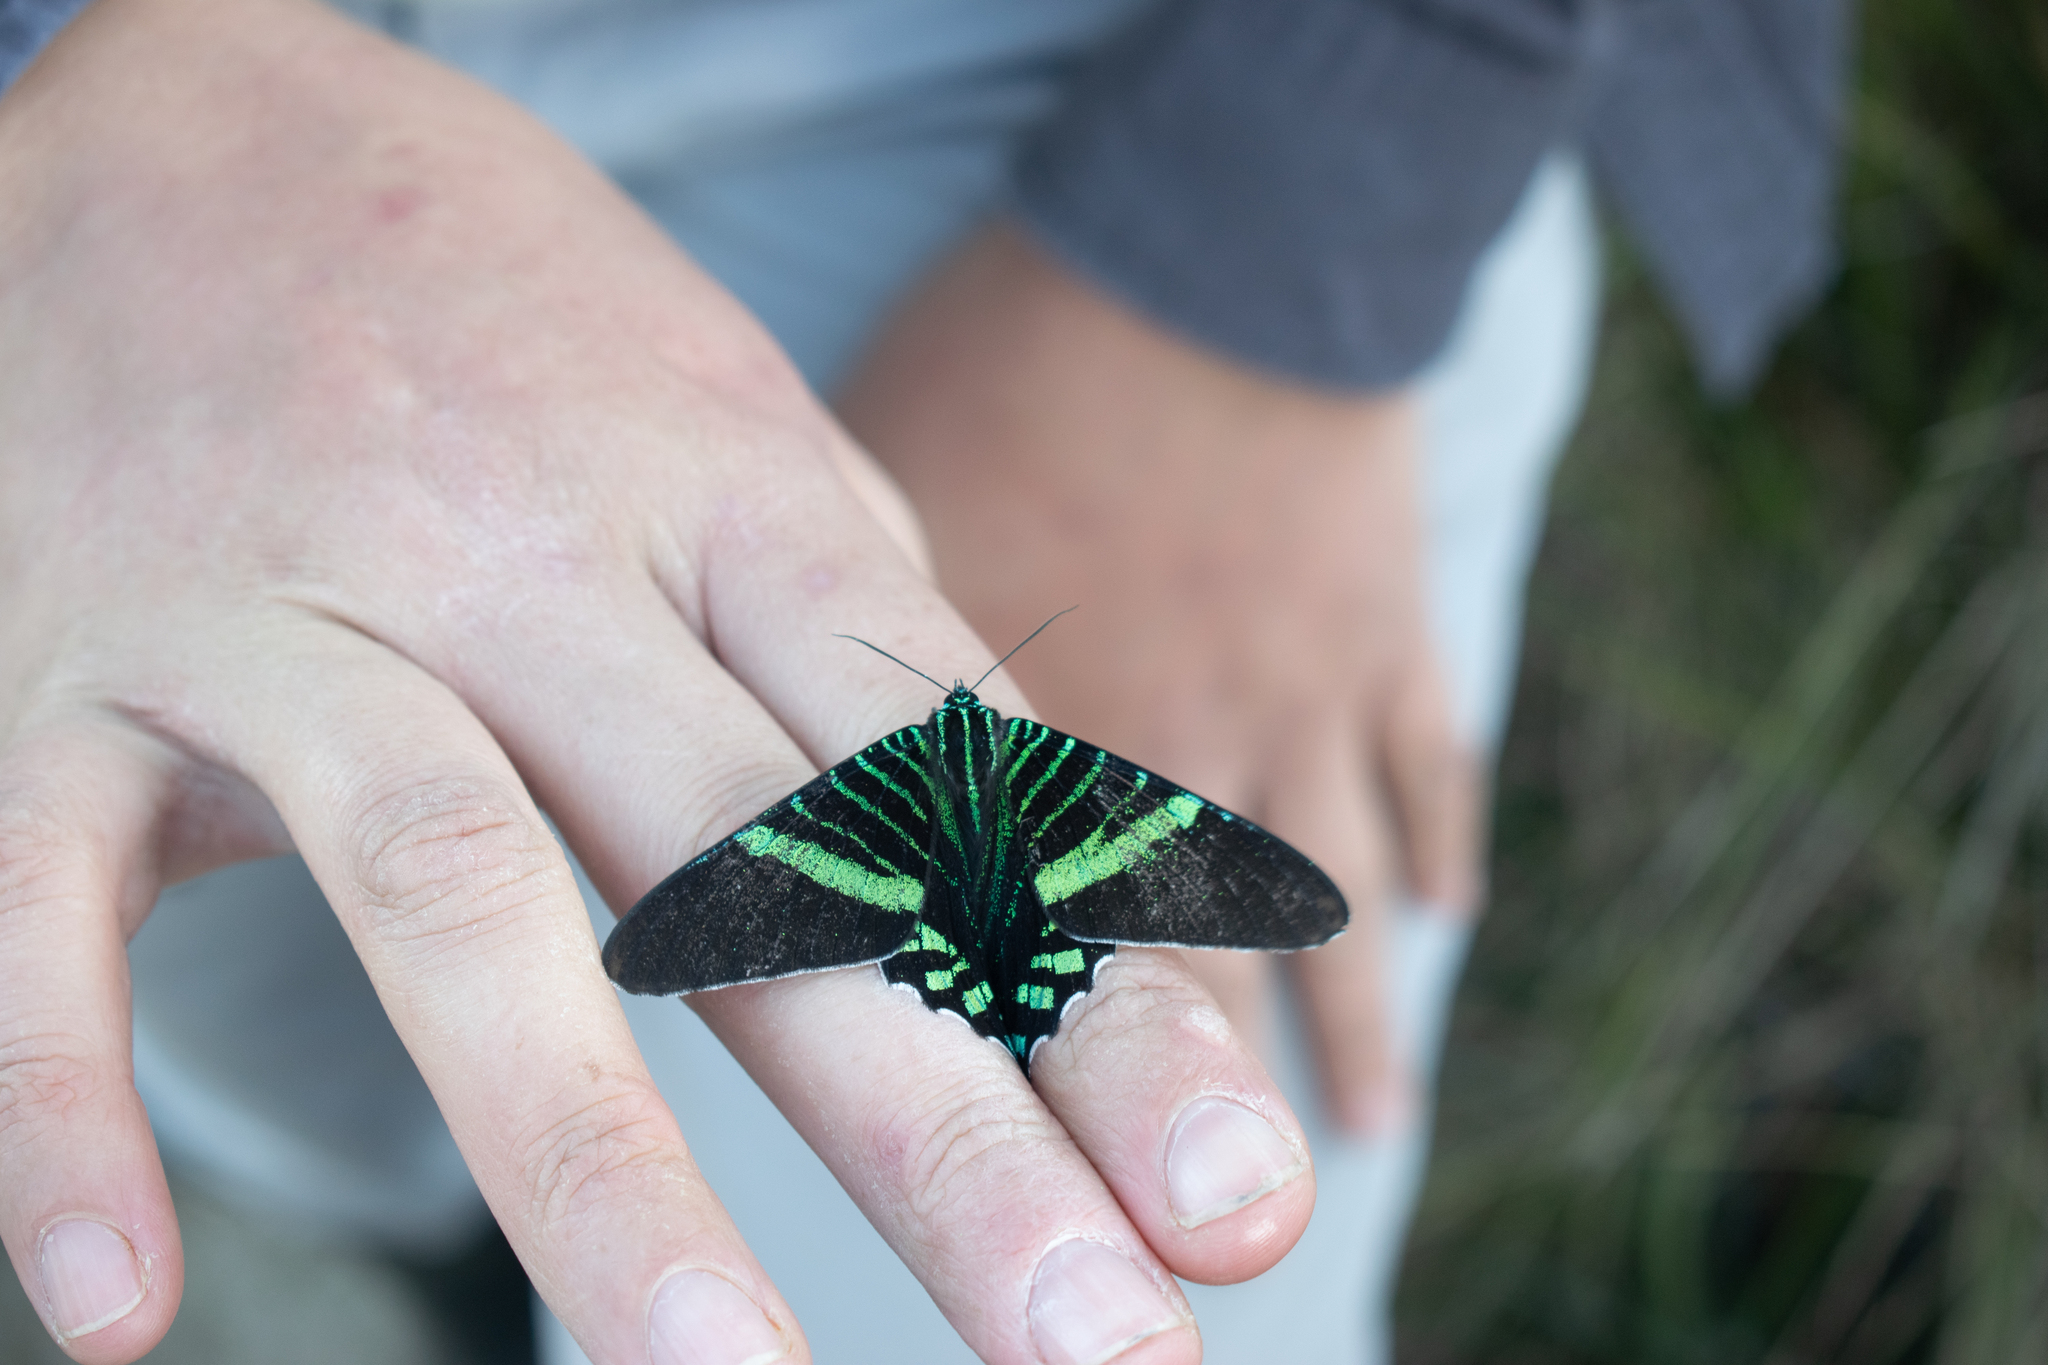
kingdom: Animalia
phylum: Arthropoda
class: Insecta
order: Lepidoptera
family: Uraniidae
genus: Urania
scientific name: Urania fulgens
